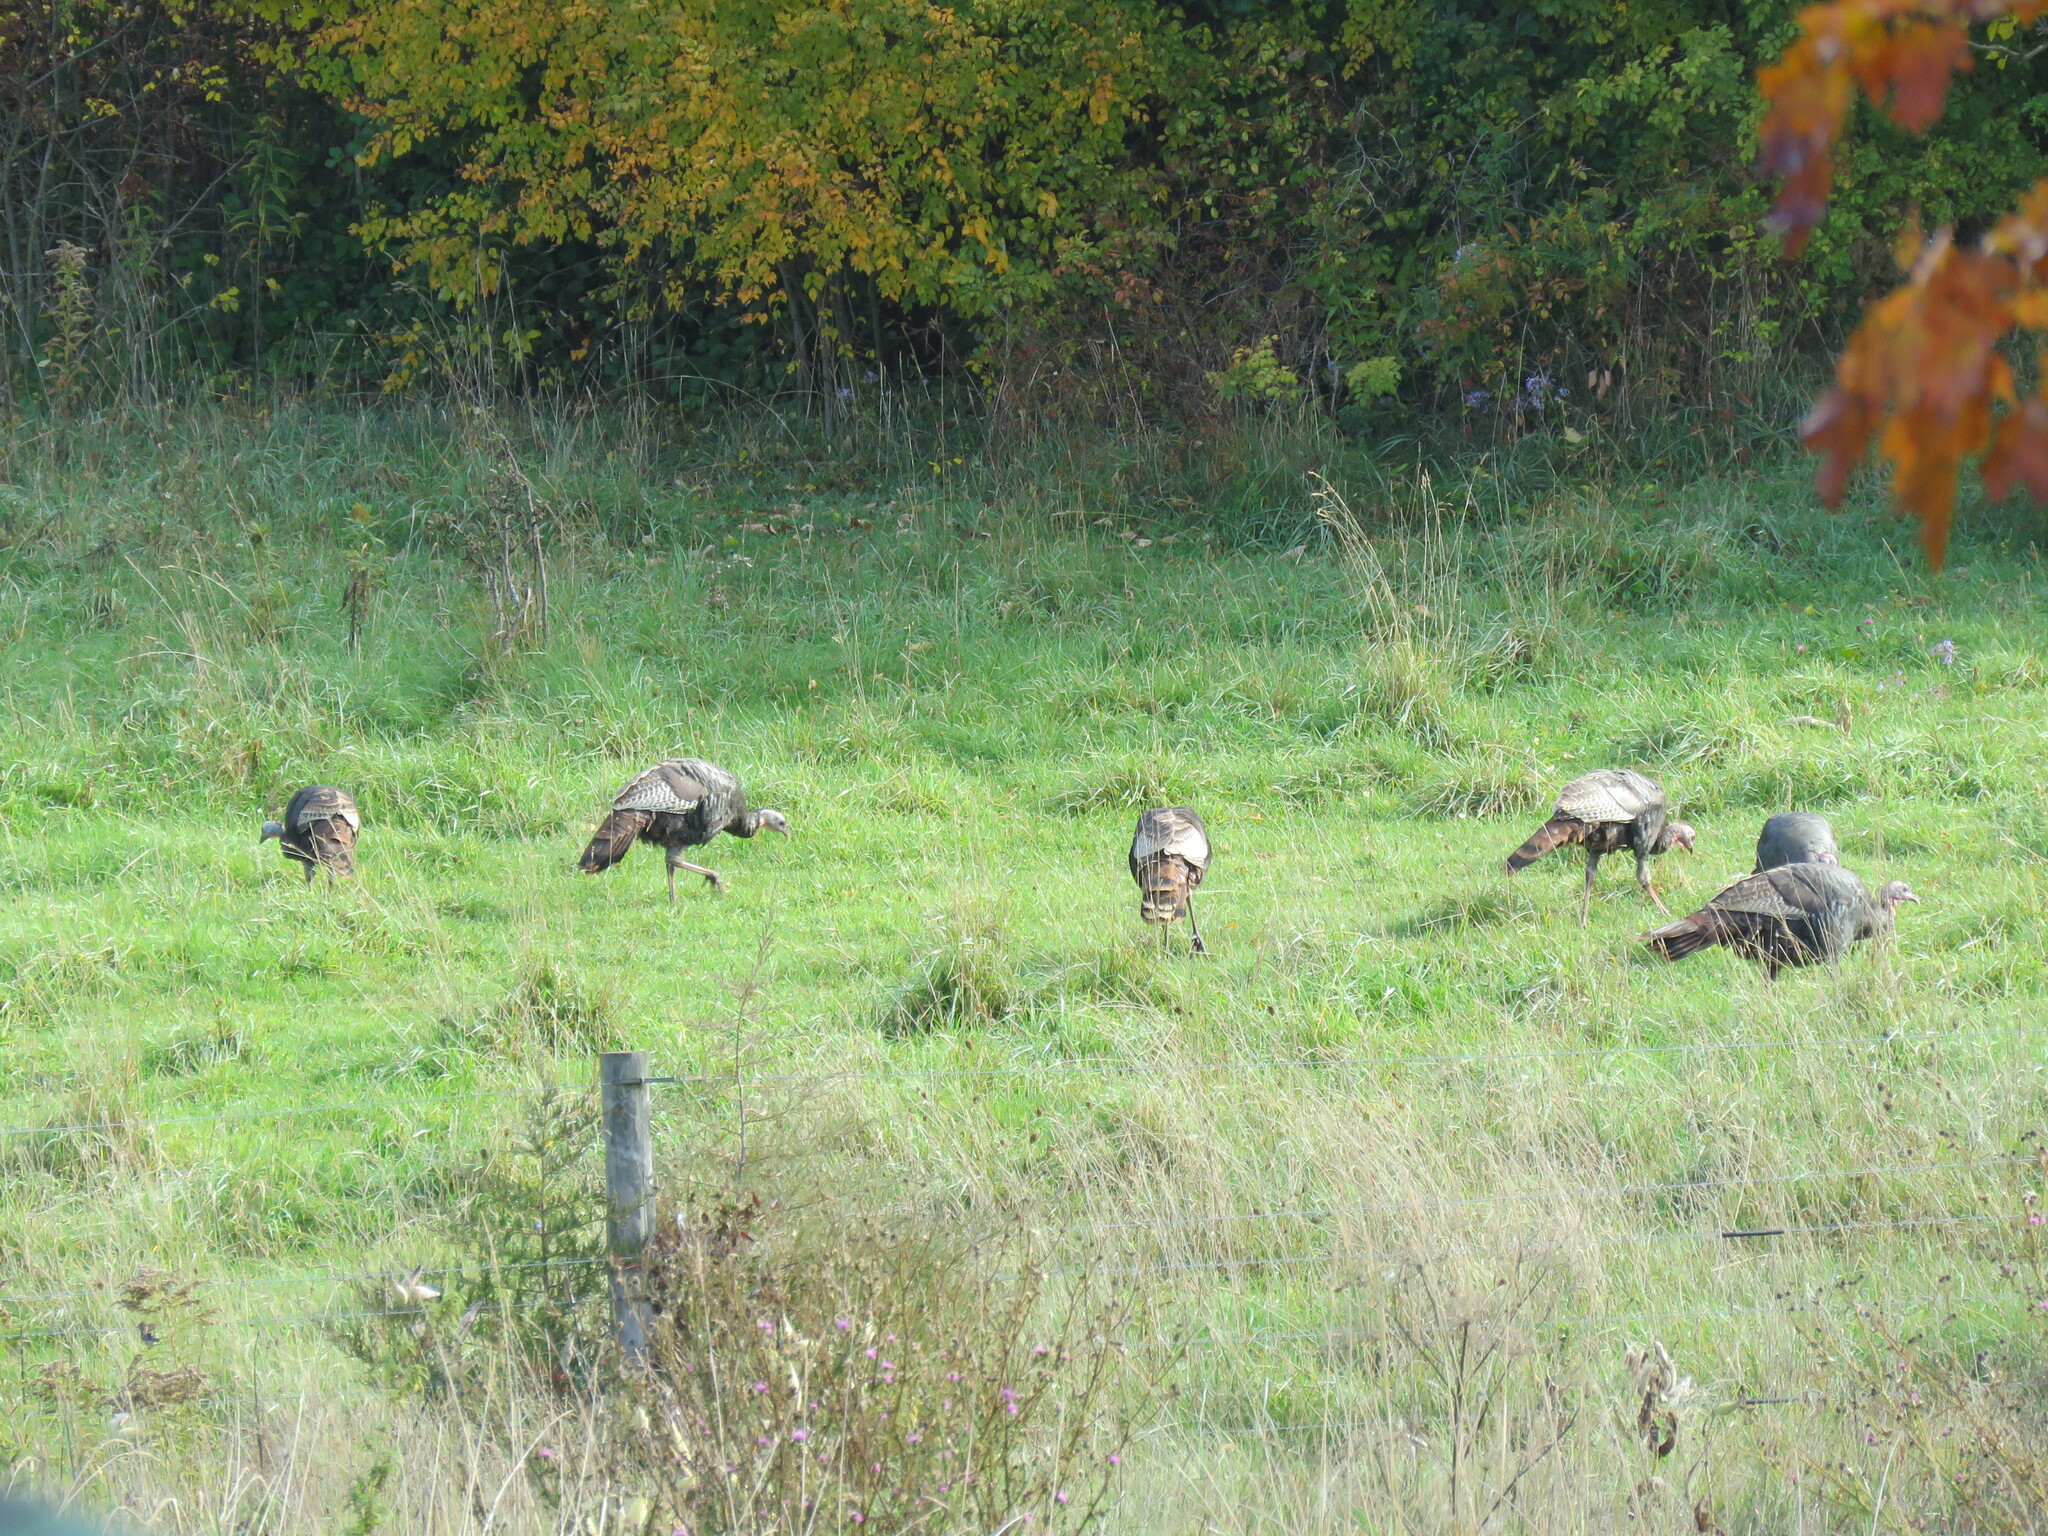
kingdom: Animalia
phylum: Chordata
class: Aves
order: Galliformes
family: Phasianidae
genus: Meleagris
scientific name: Meleagris gallopavo
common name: Wild turkey
